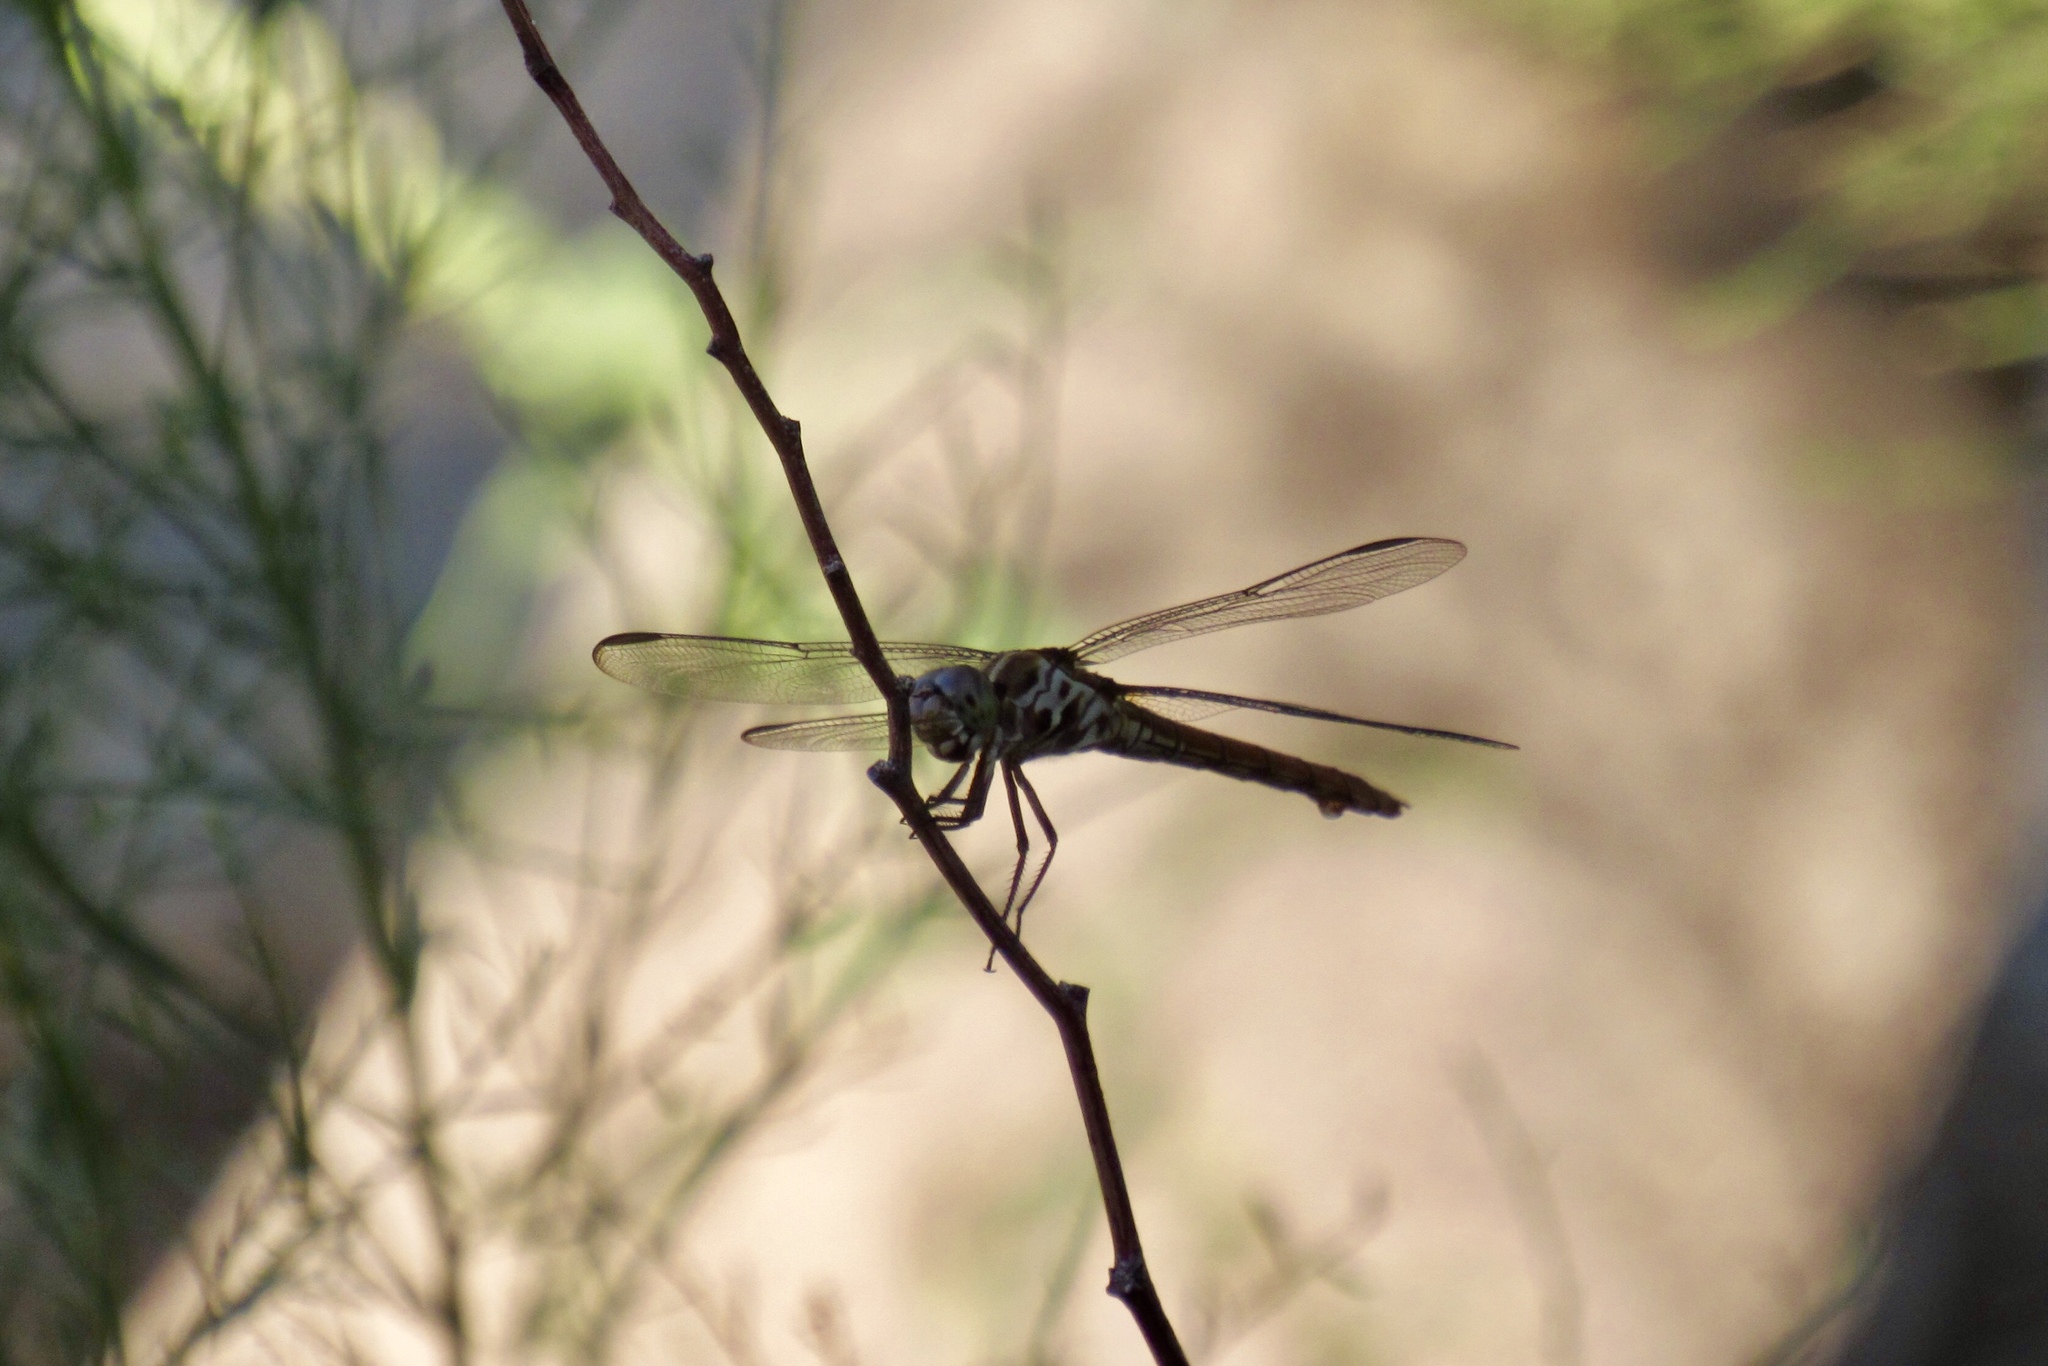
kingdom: Animalia
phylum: Arthropoda
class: Insecta
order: Odonata
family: Libellulidae
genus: Orthemis
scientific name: Orthemis ferruginea
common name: Roseate skimmer
